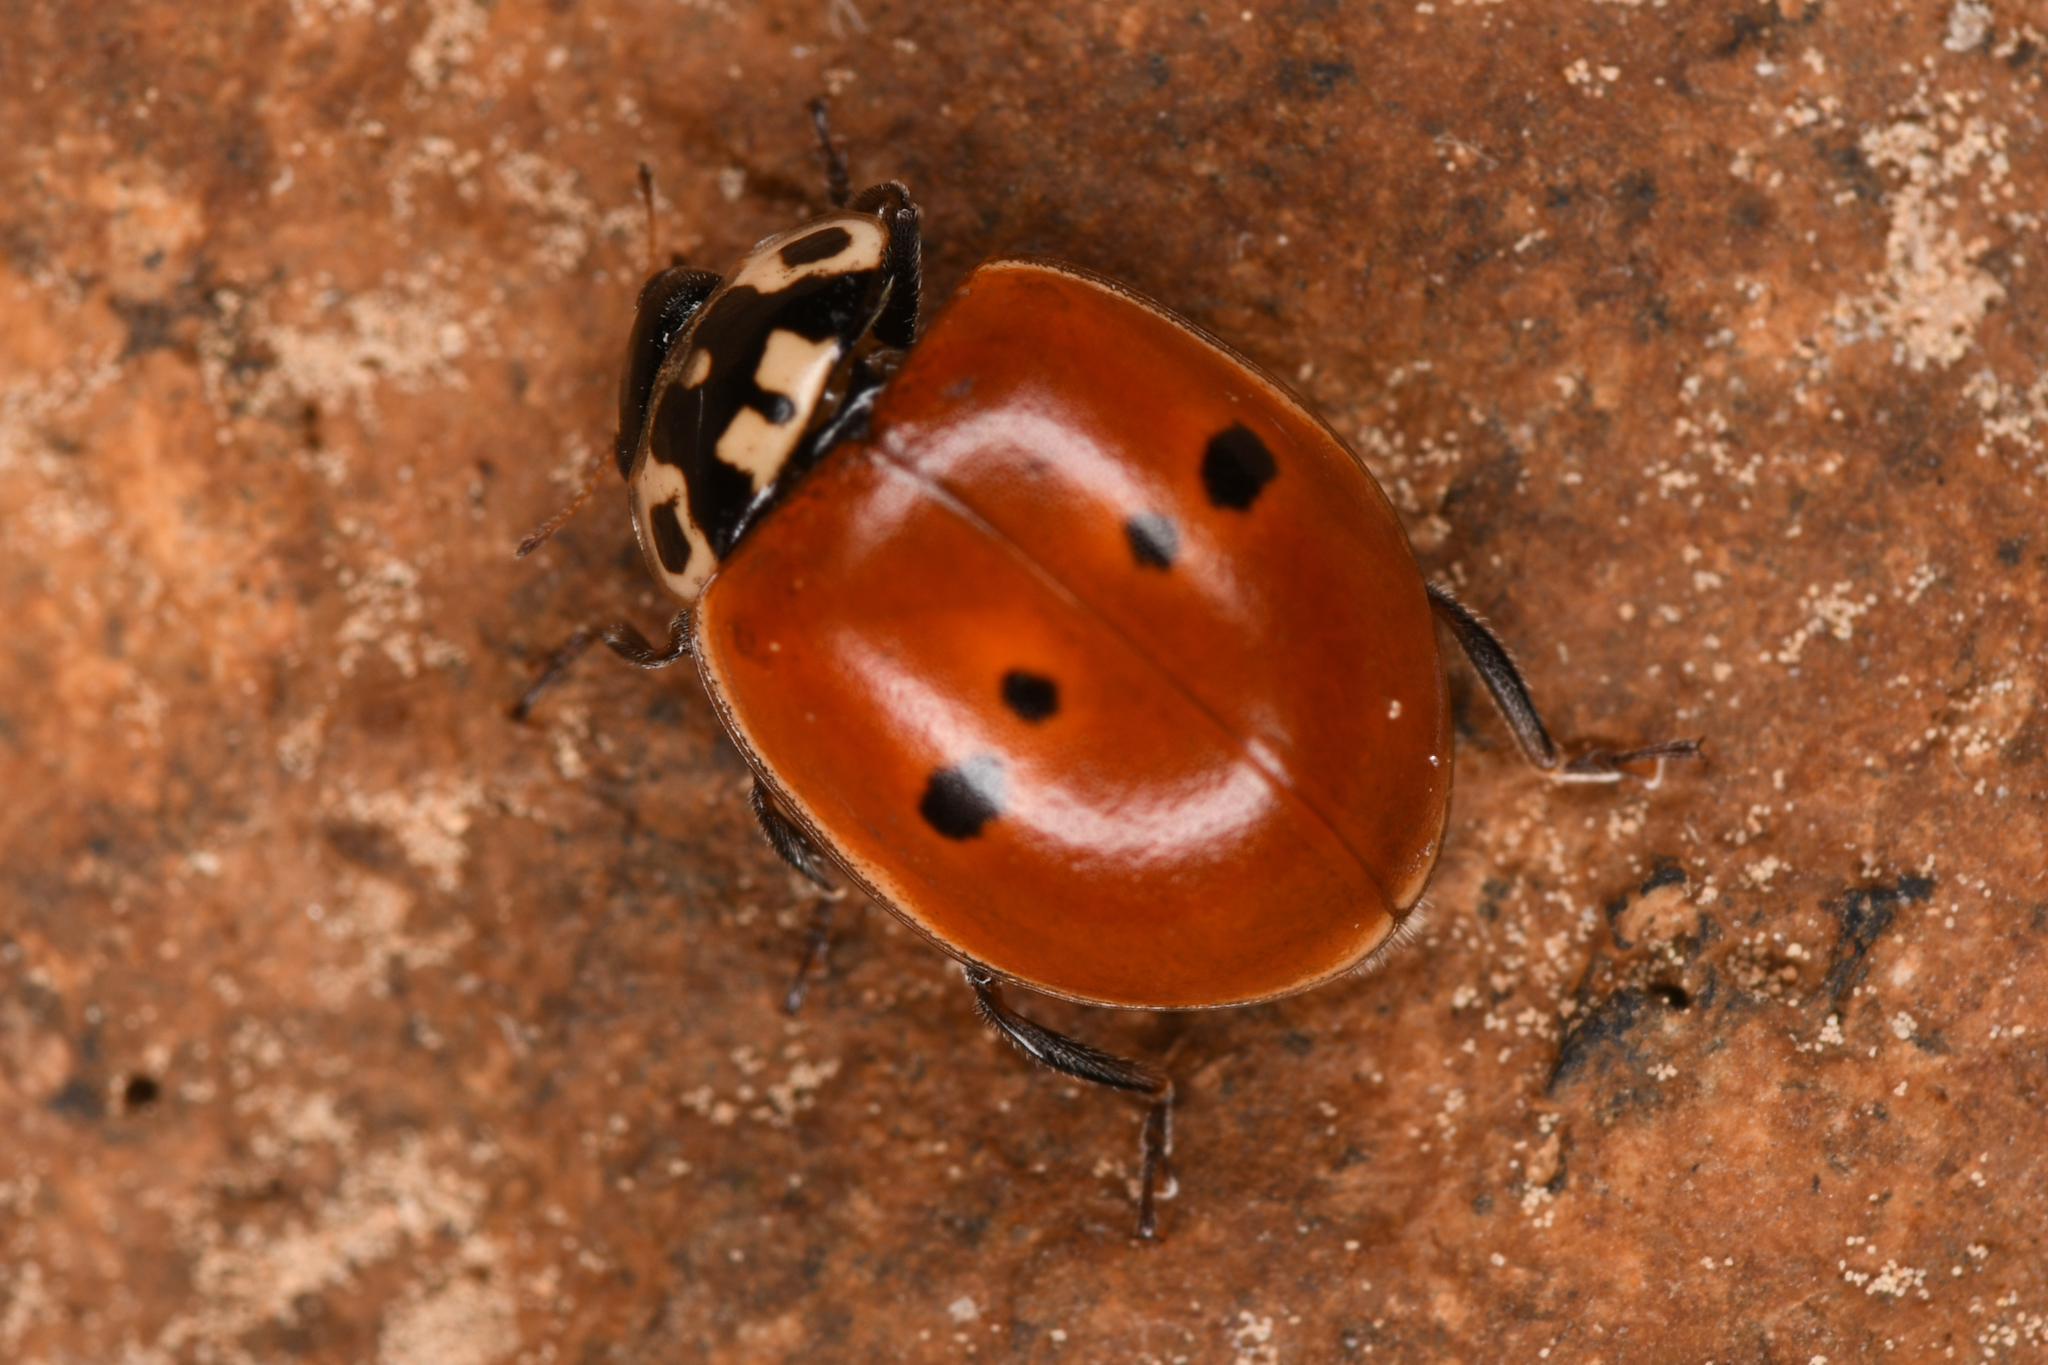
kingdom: Animalia
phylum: Arthropoda
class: Insecta
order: Coleoptera
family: Coccinellidae
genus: Adalia
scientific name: Adalia bipunctata
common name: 2-spot ladybird
